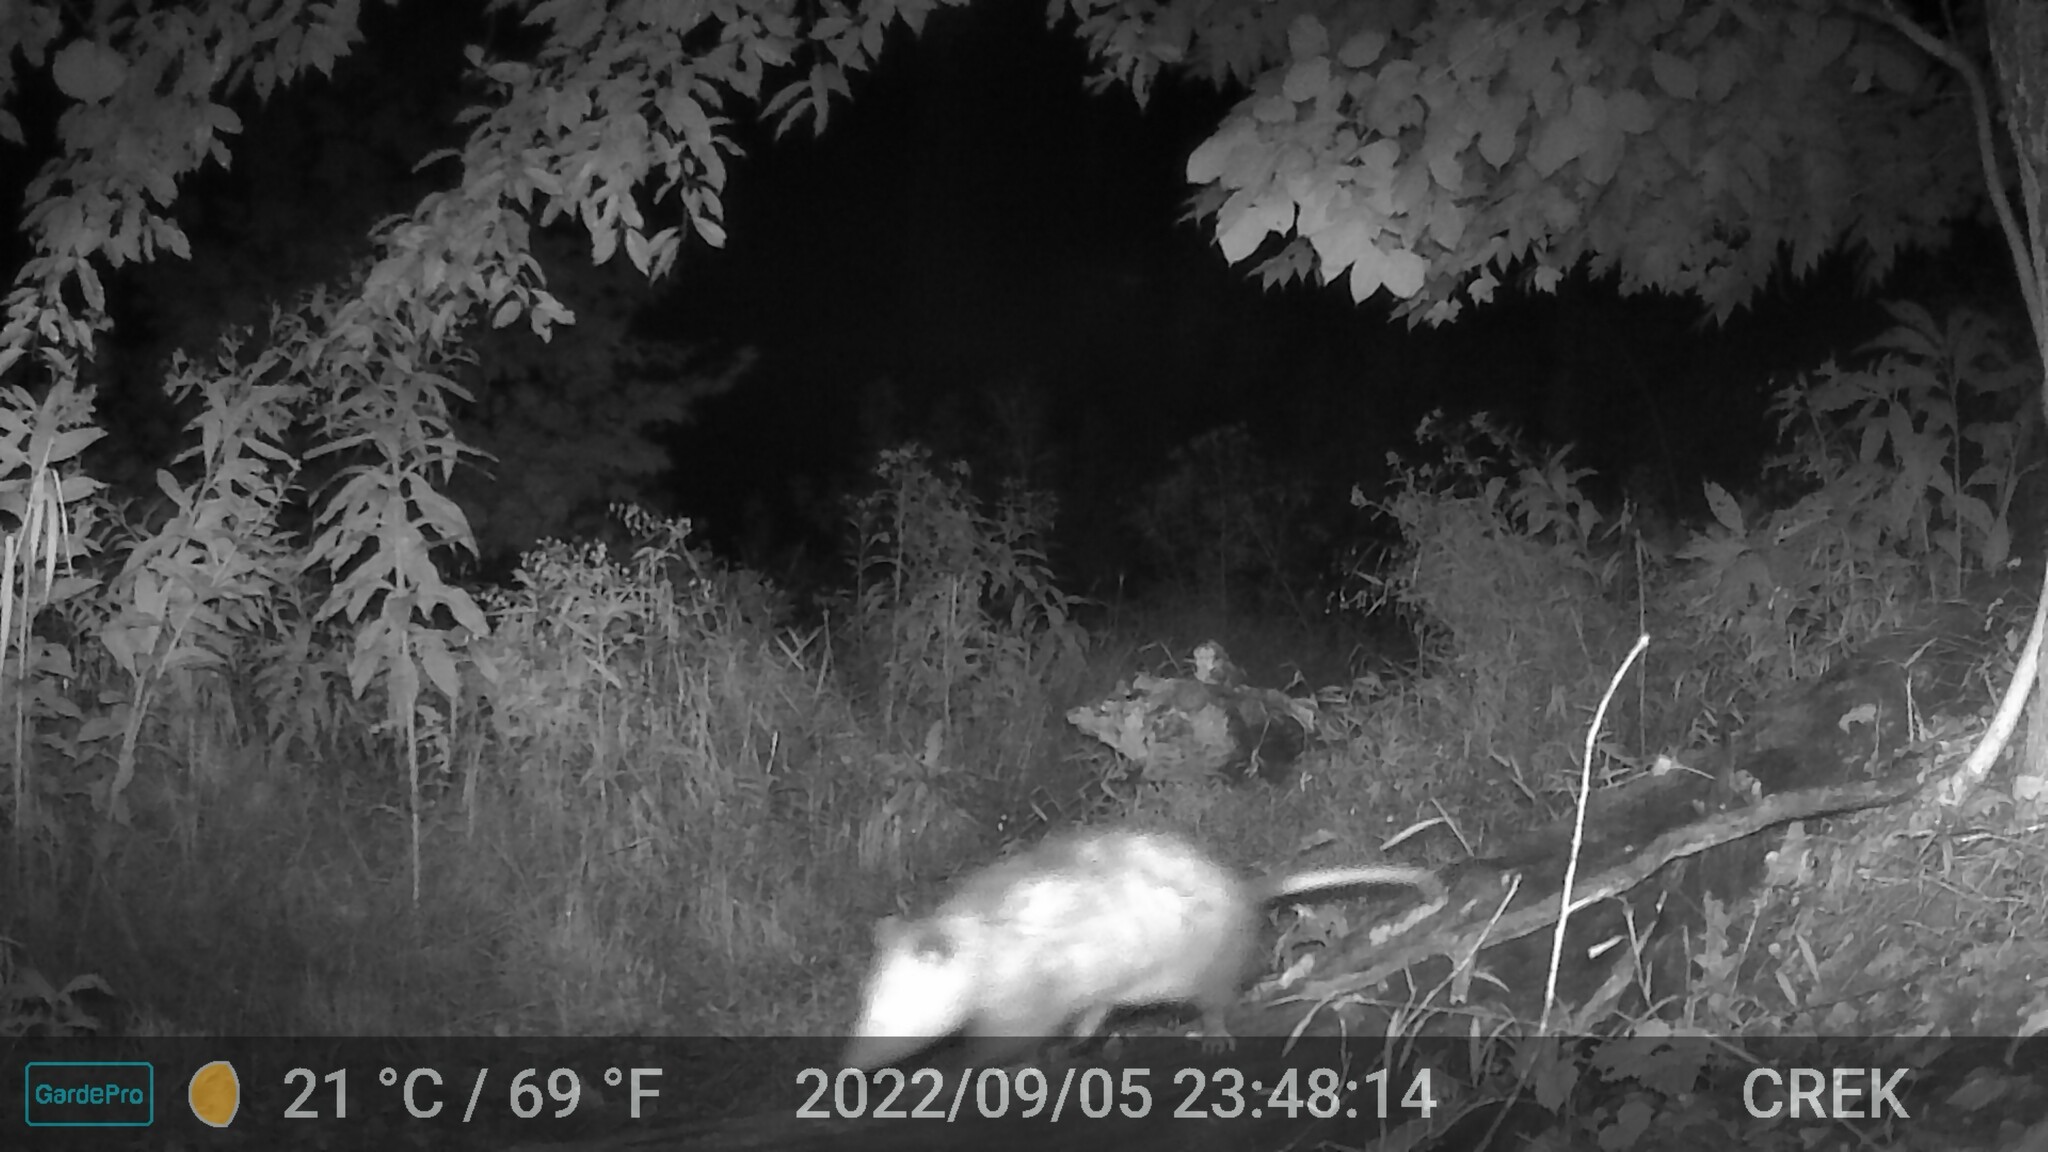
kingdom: Animalia
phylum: Chordata
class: Mammalia
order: Didelphimorphia
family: Didelphidae
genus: Didelphis
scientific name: Didelphis virginiana
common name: Virginia opossum
